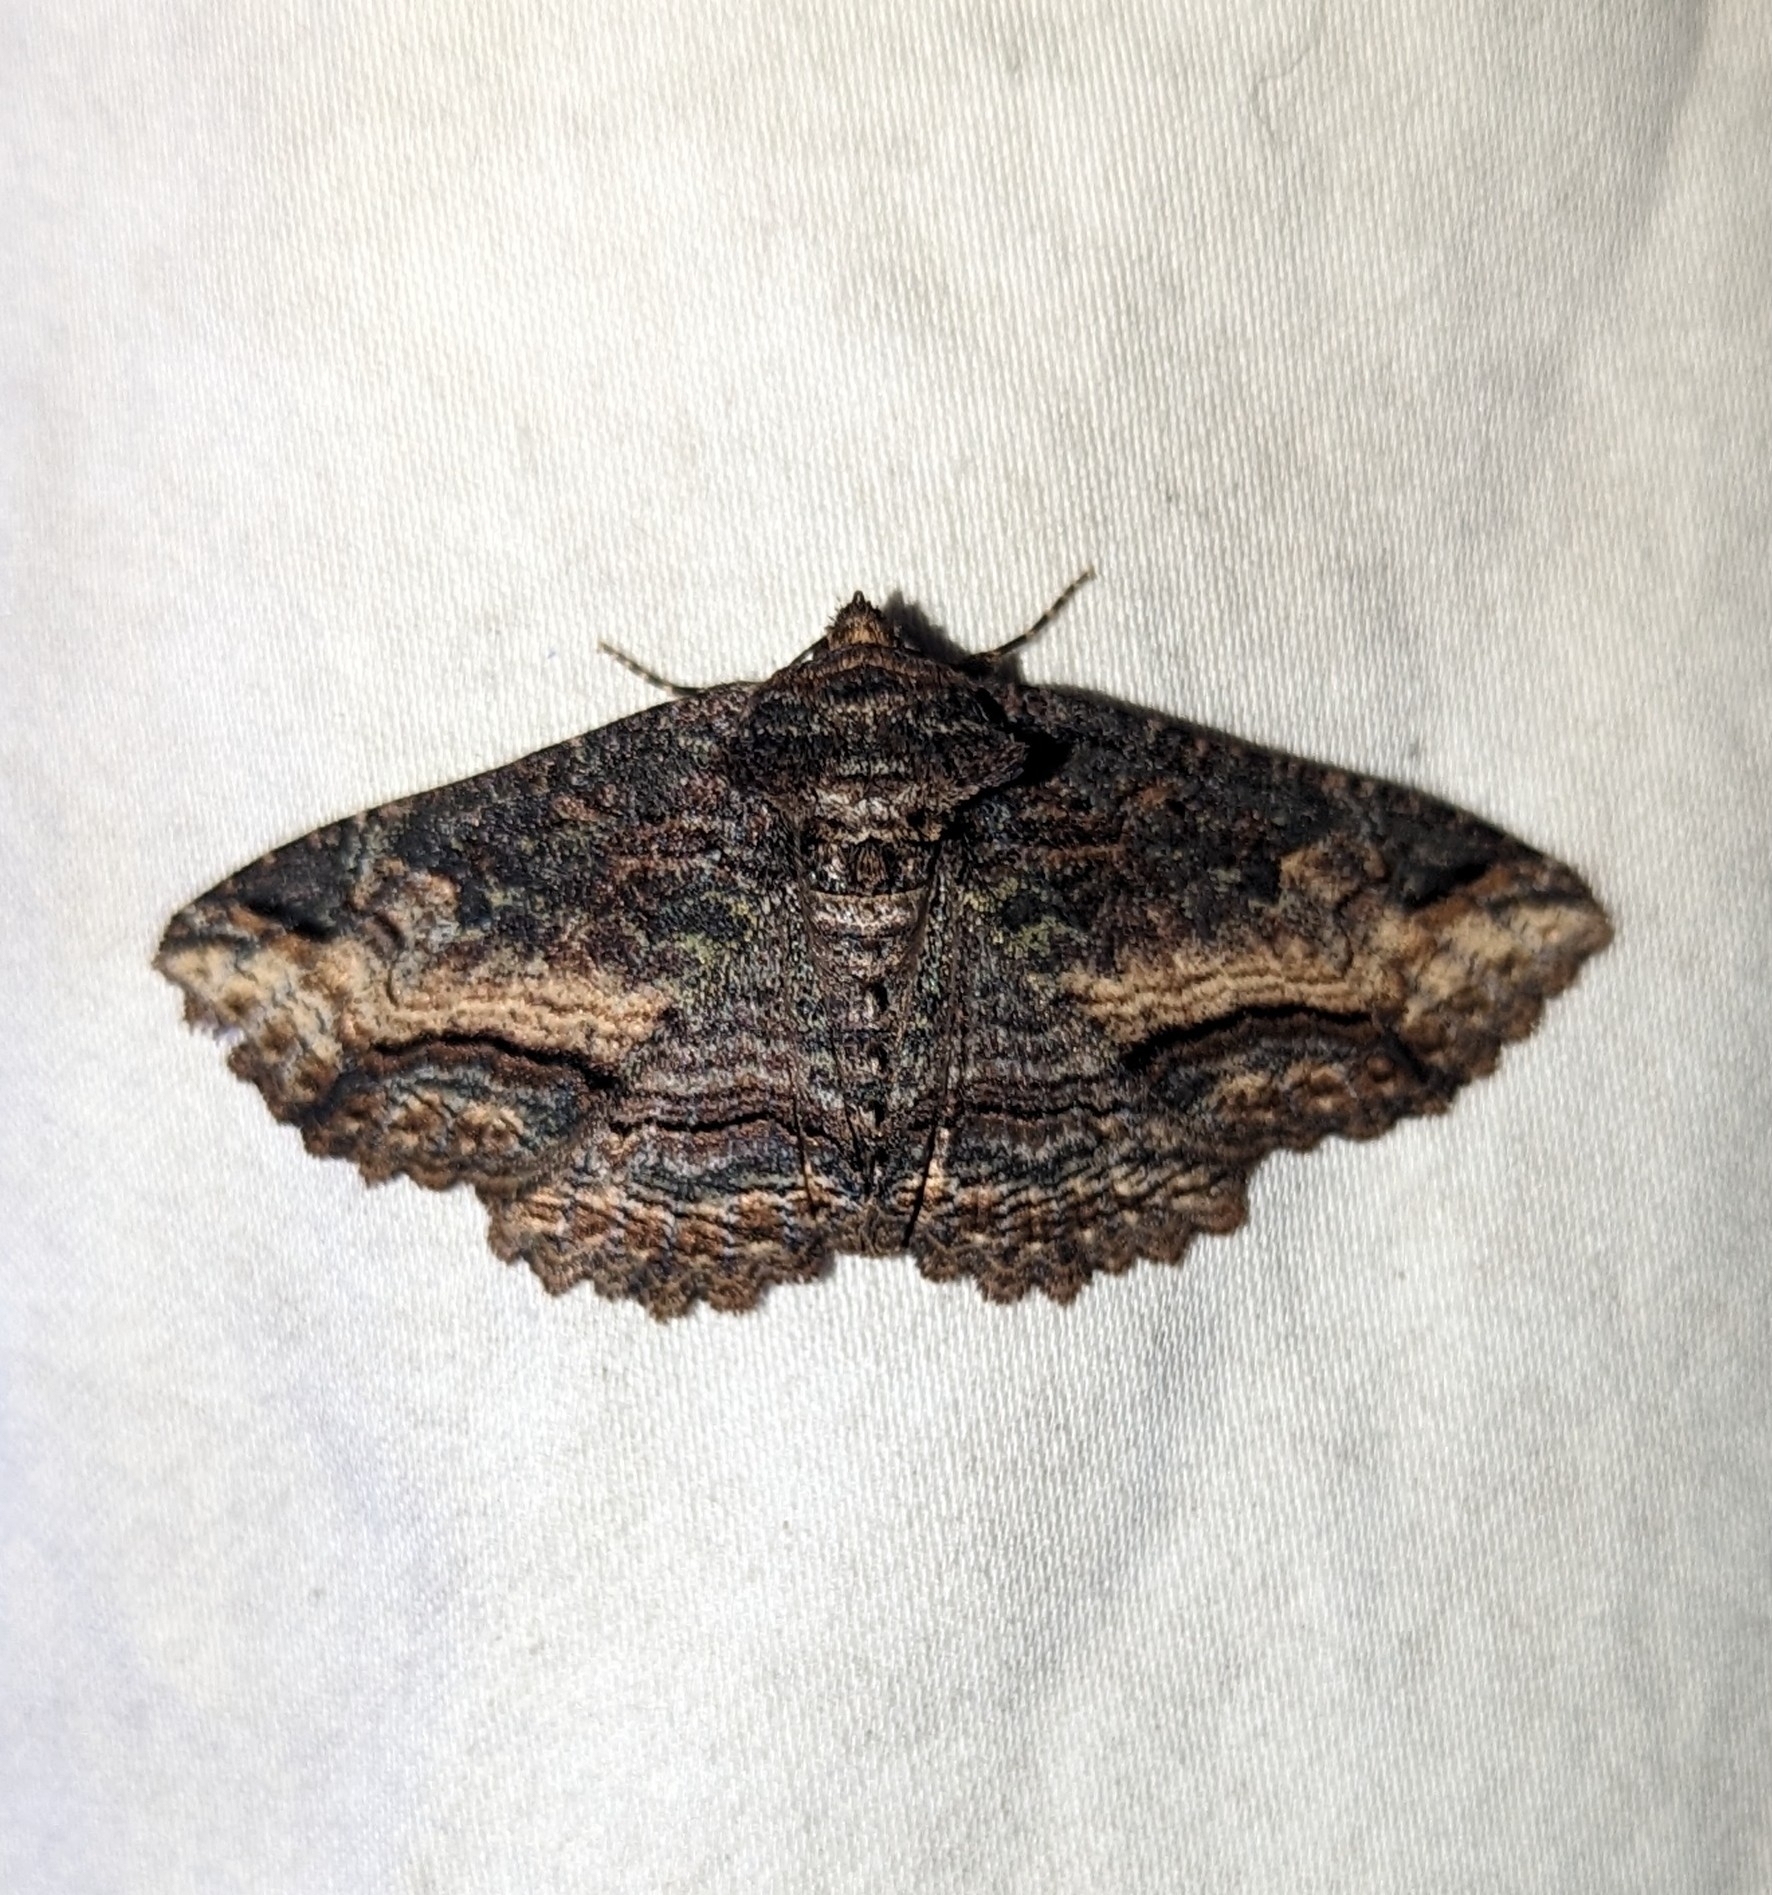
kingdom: Animalia
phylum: Arthropoda
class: Insecta
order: Lepidoptera
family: Erebidae
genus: Zale
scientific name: Zale minerea
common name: Colorful zale moth
